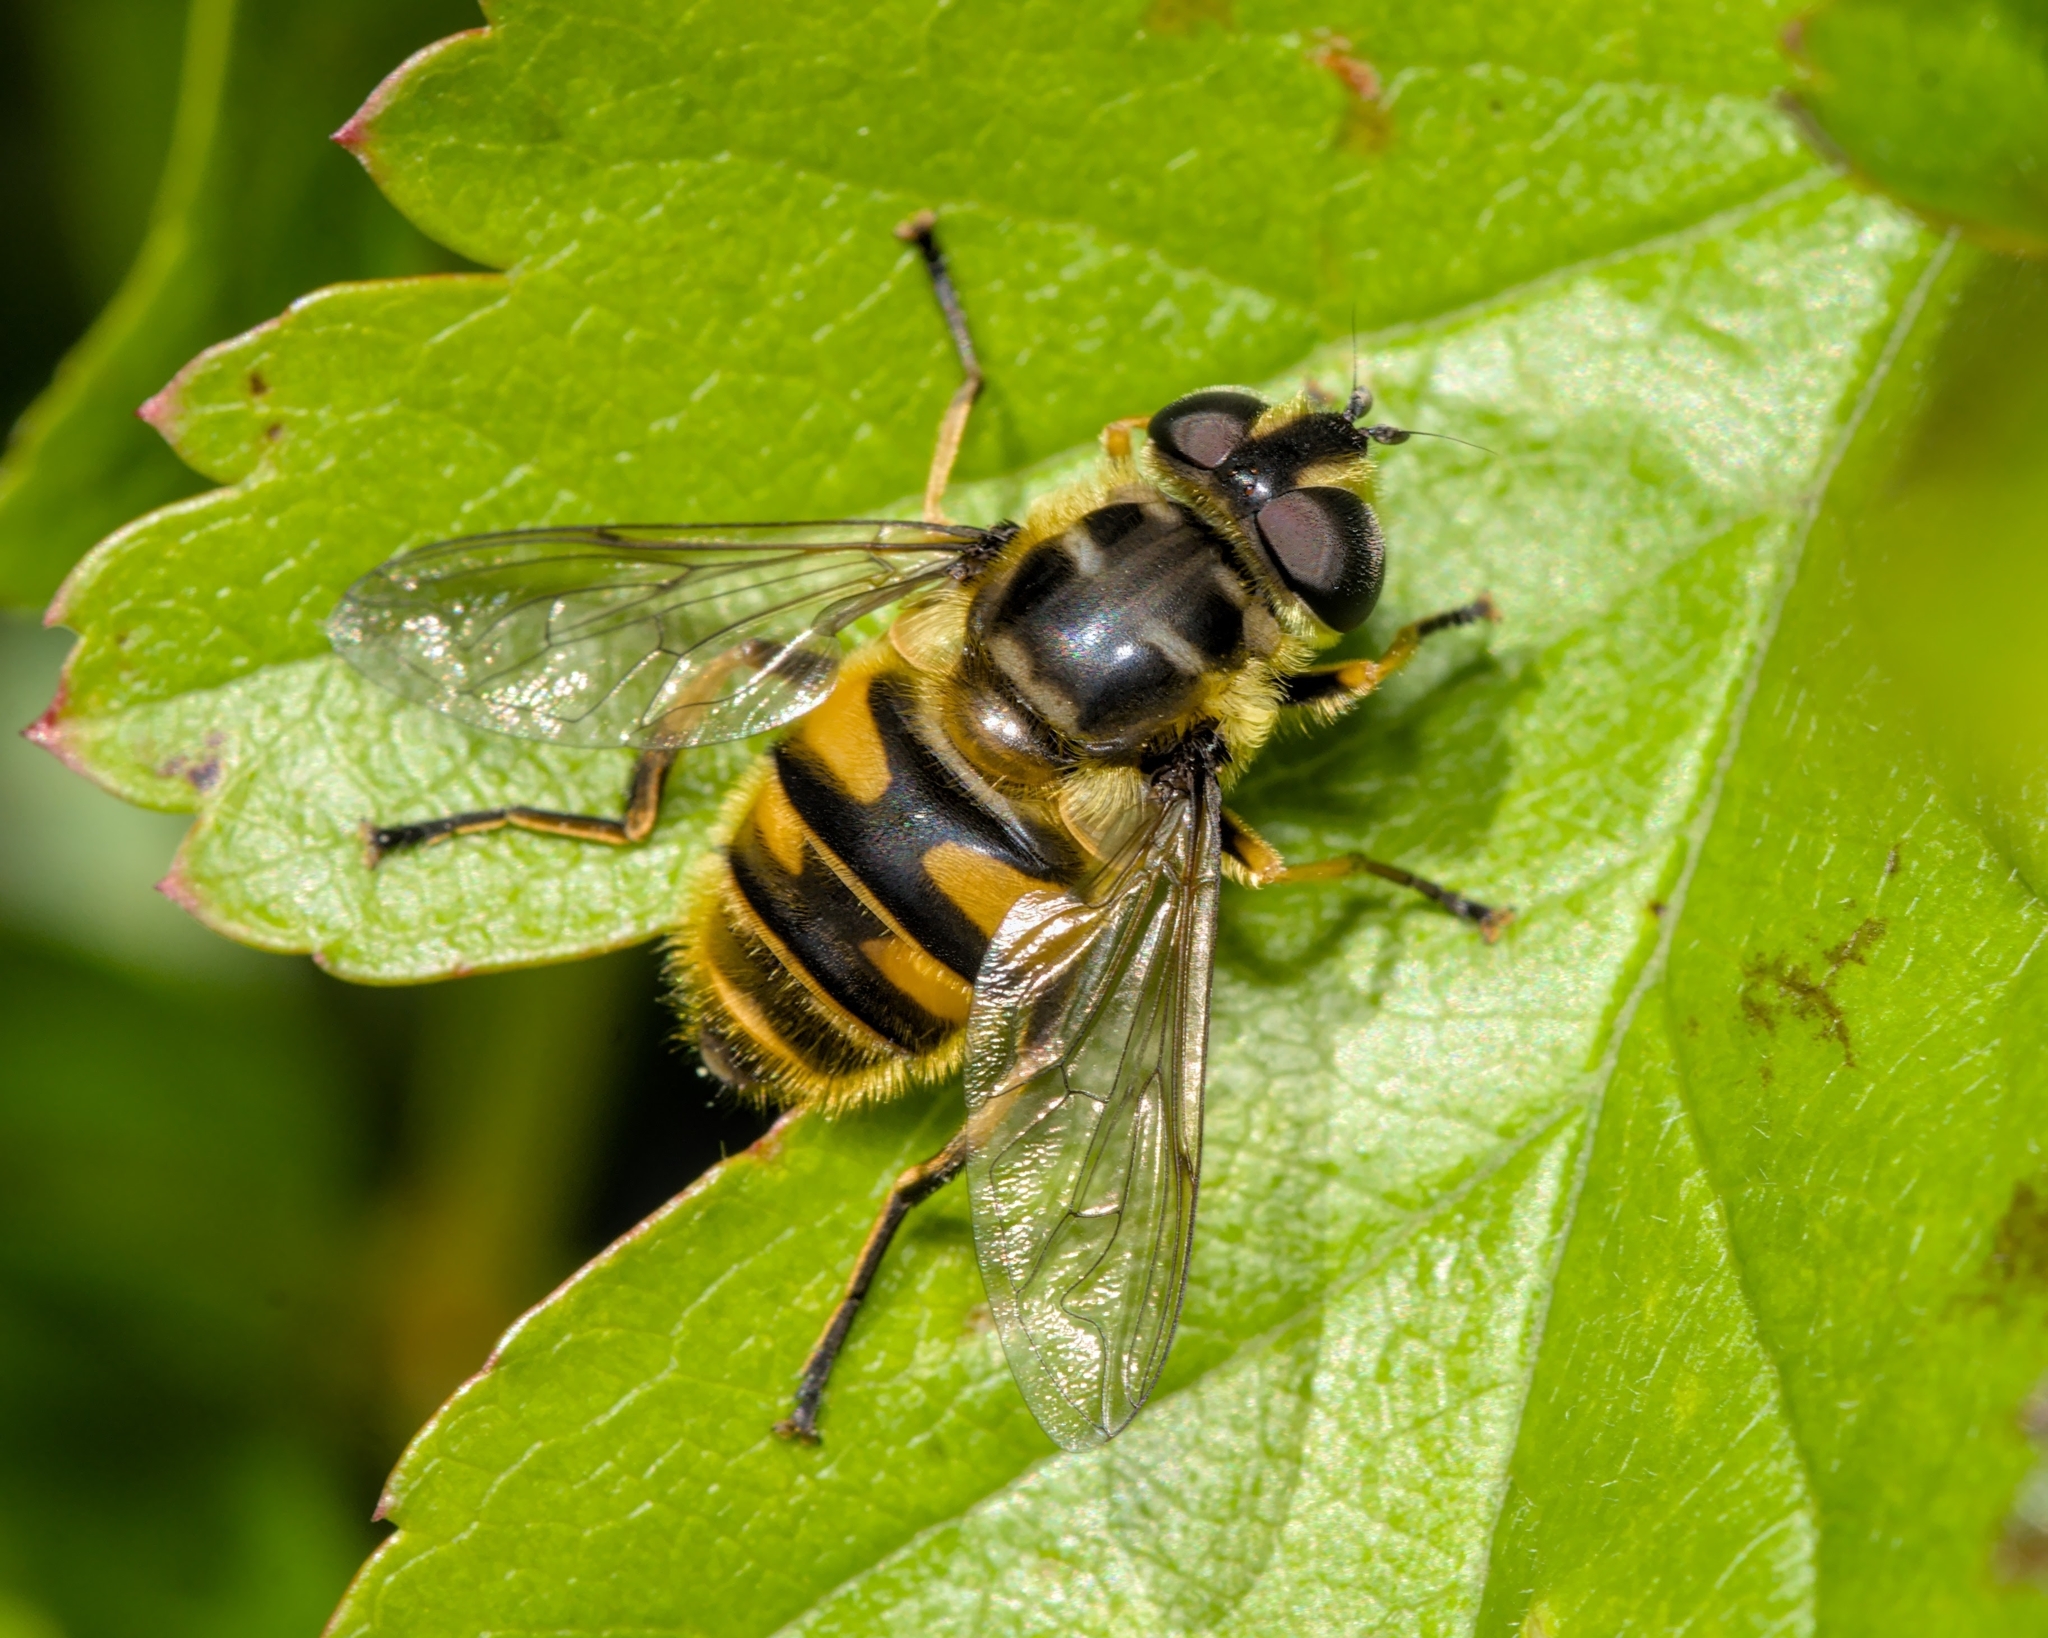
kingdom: Animalia
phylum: Arthropoda
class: Insecta
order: Diptera
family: Syrphidae
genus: Myathropa
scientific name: Myathropa florea
